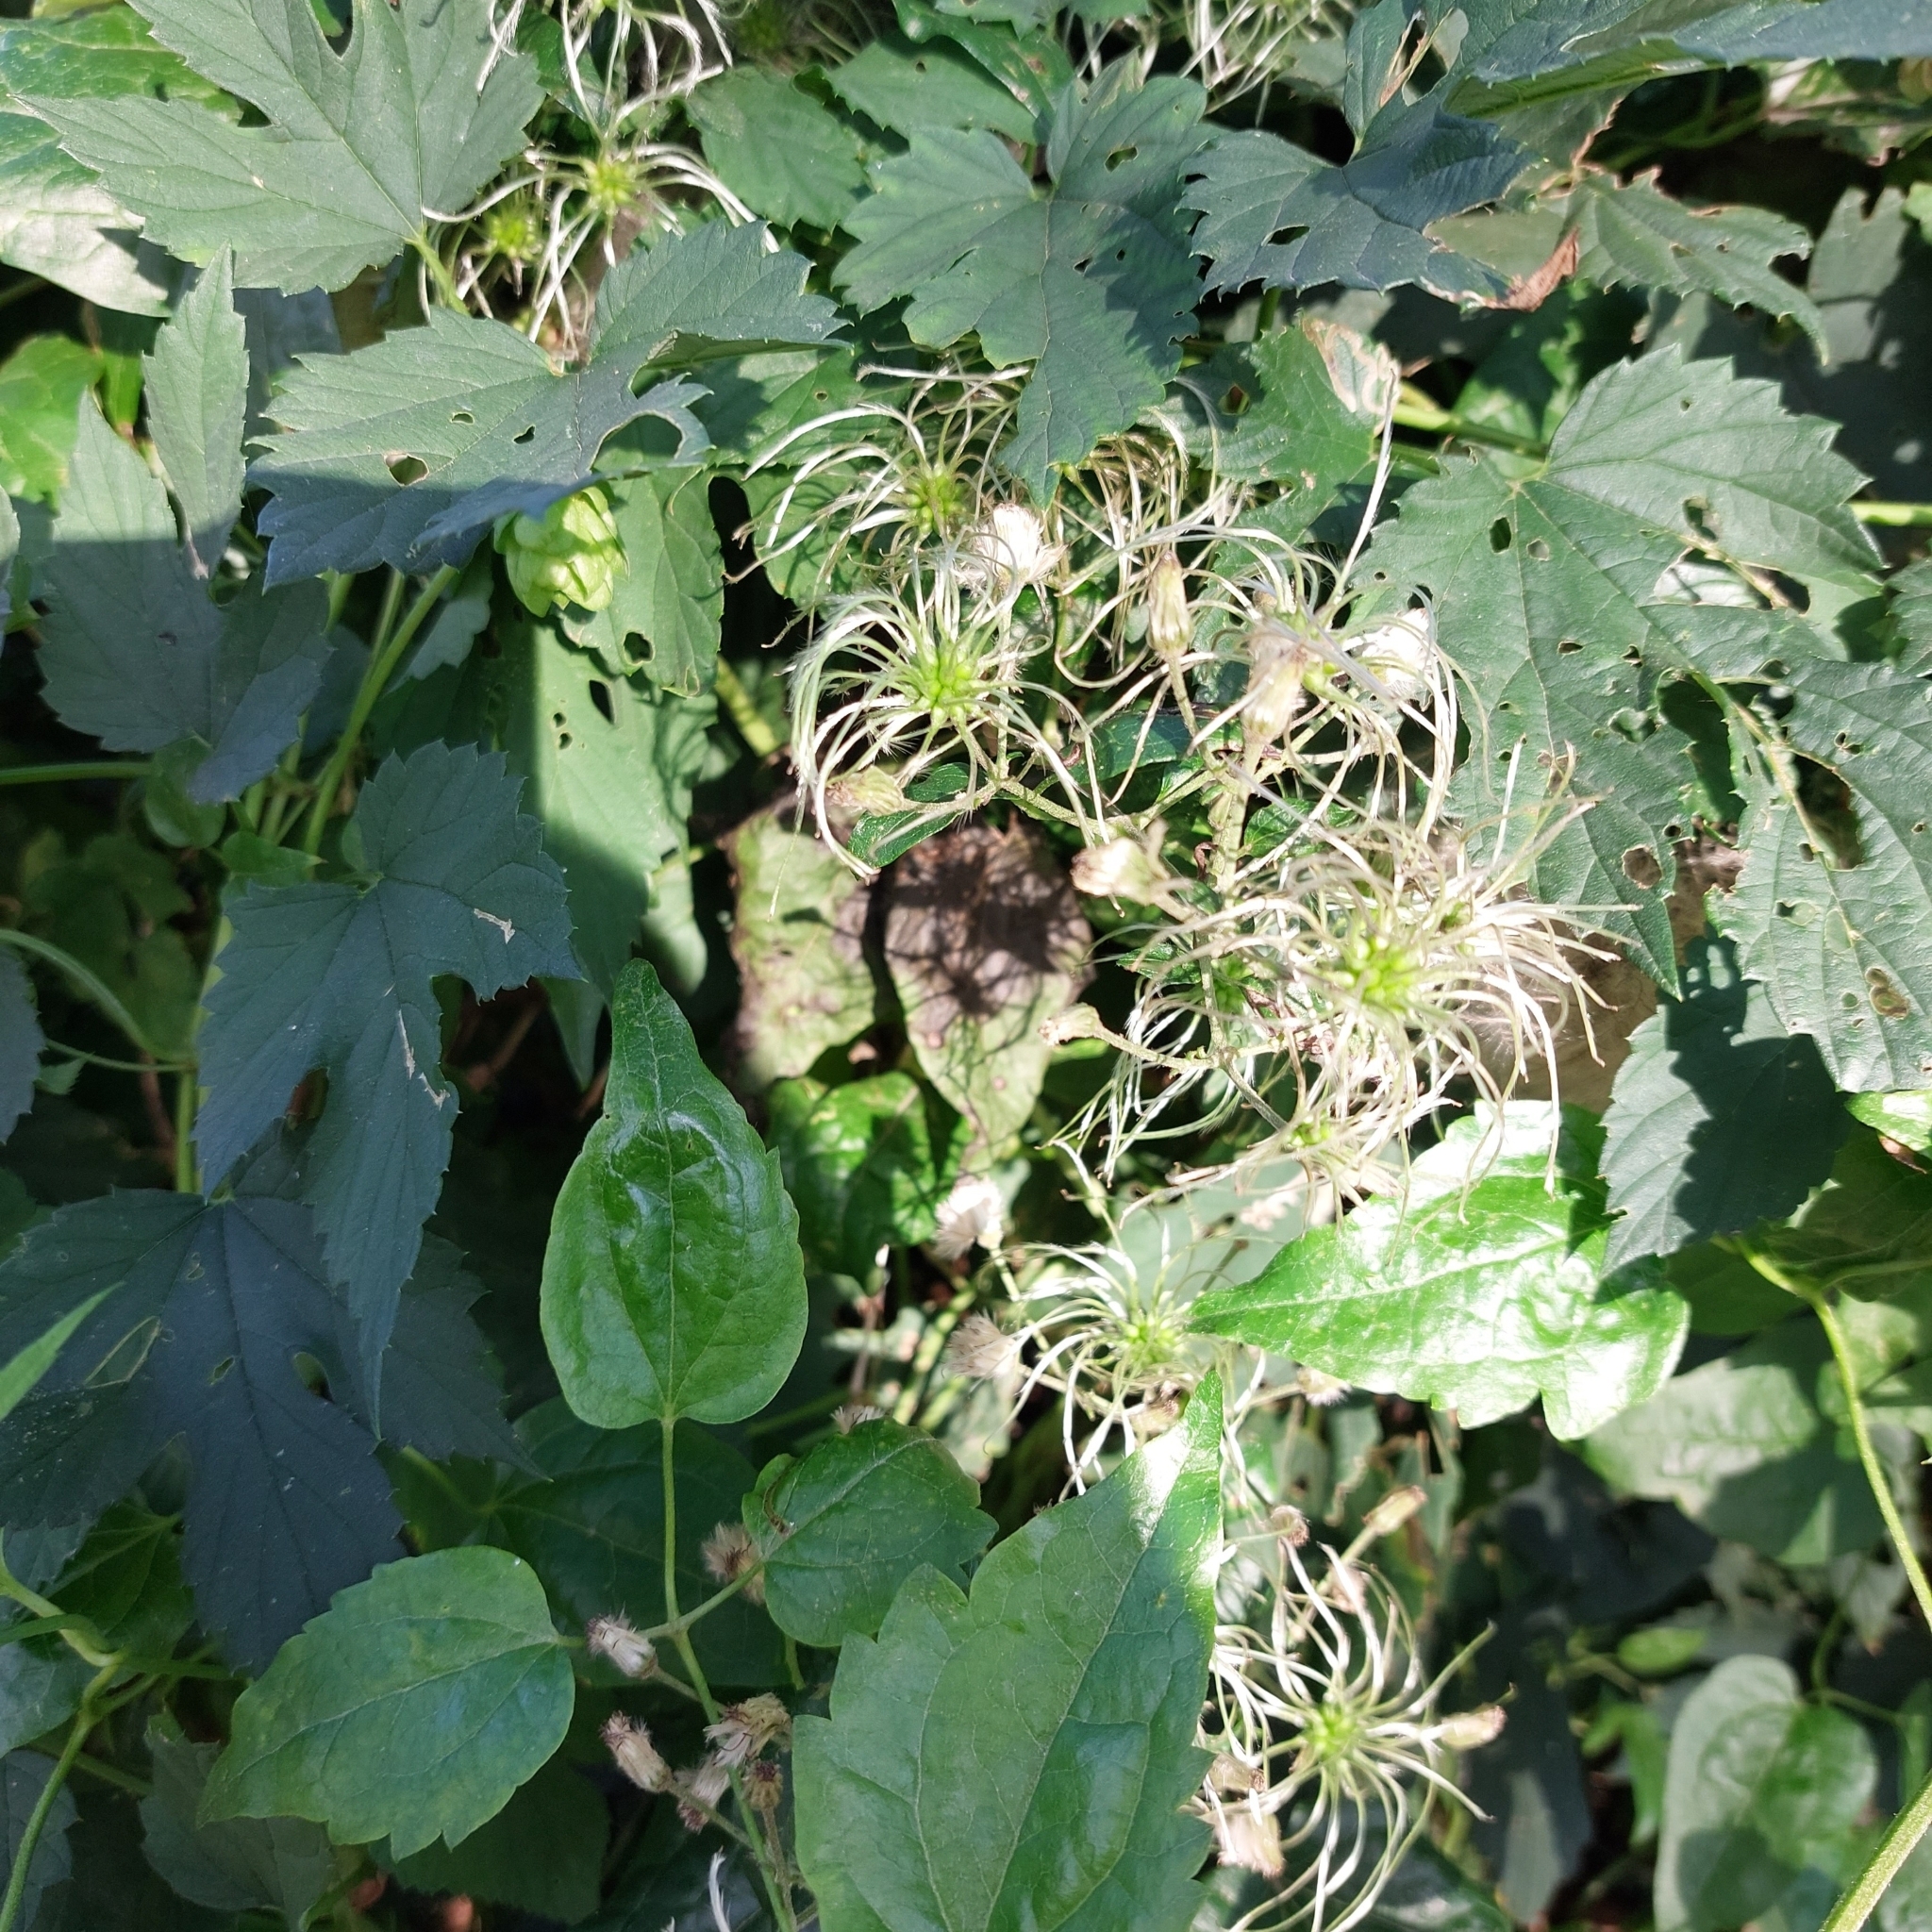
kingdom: Plantae
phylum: Tracheophyta
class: Magnoliopsida
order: Ranunculales
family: Ranunculaceae
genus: Clematis
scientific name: Clematis vitalba
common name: Evergreen clematis
